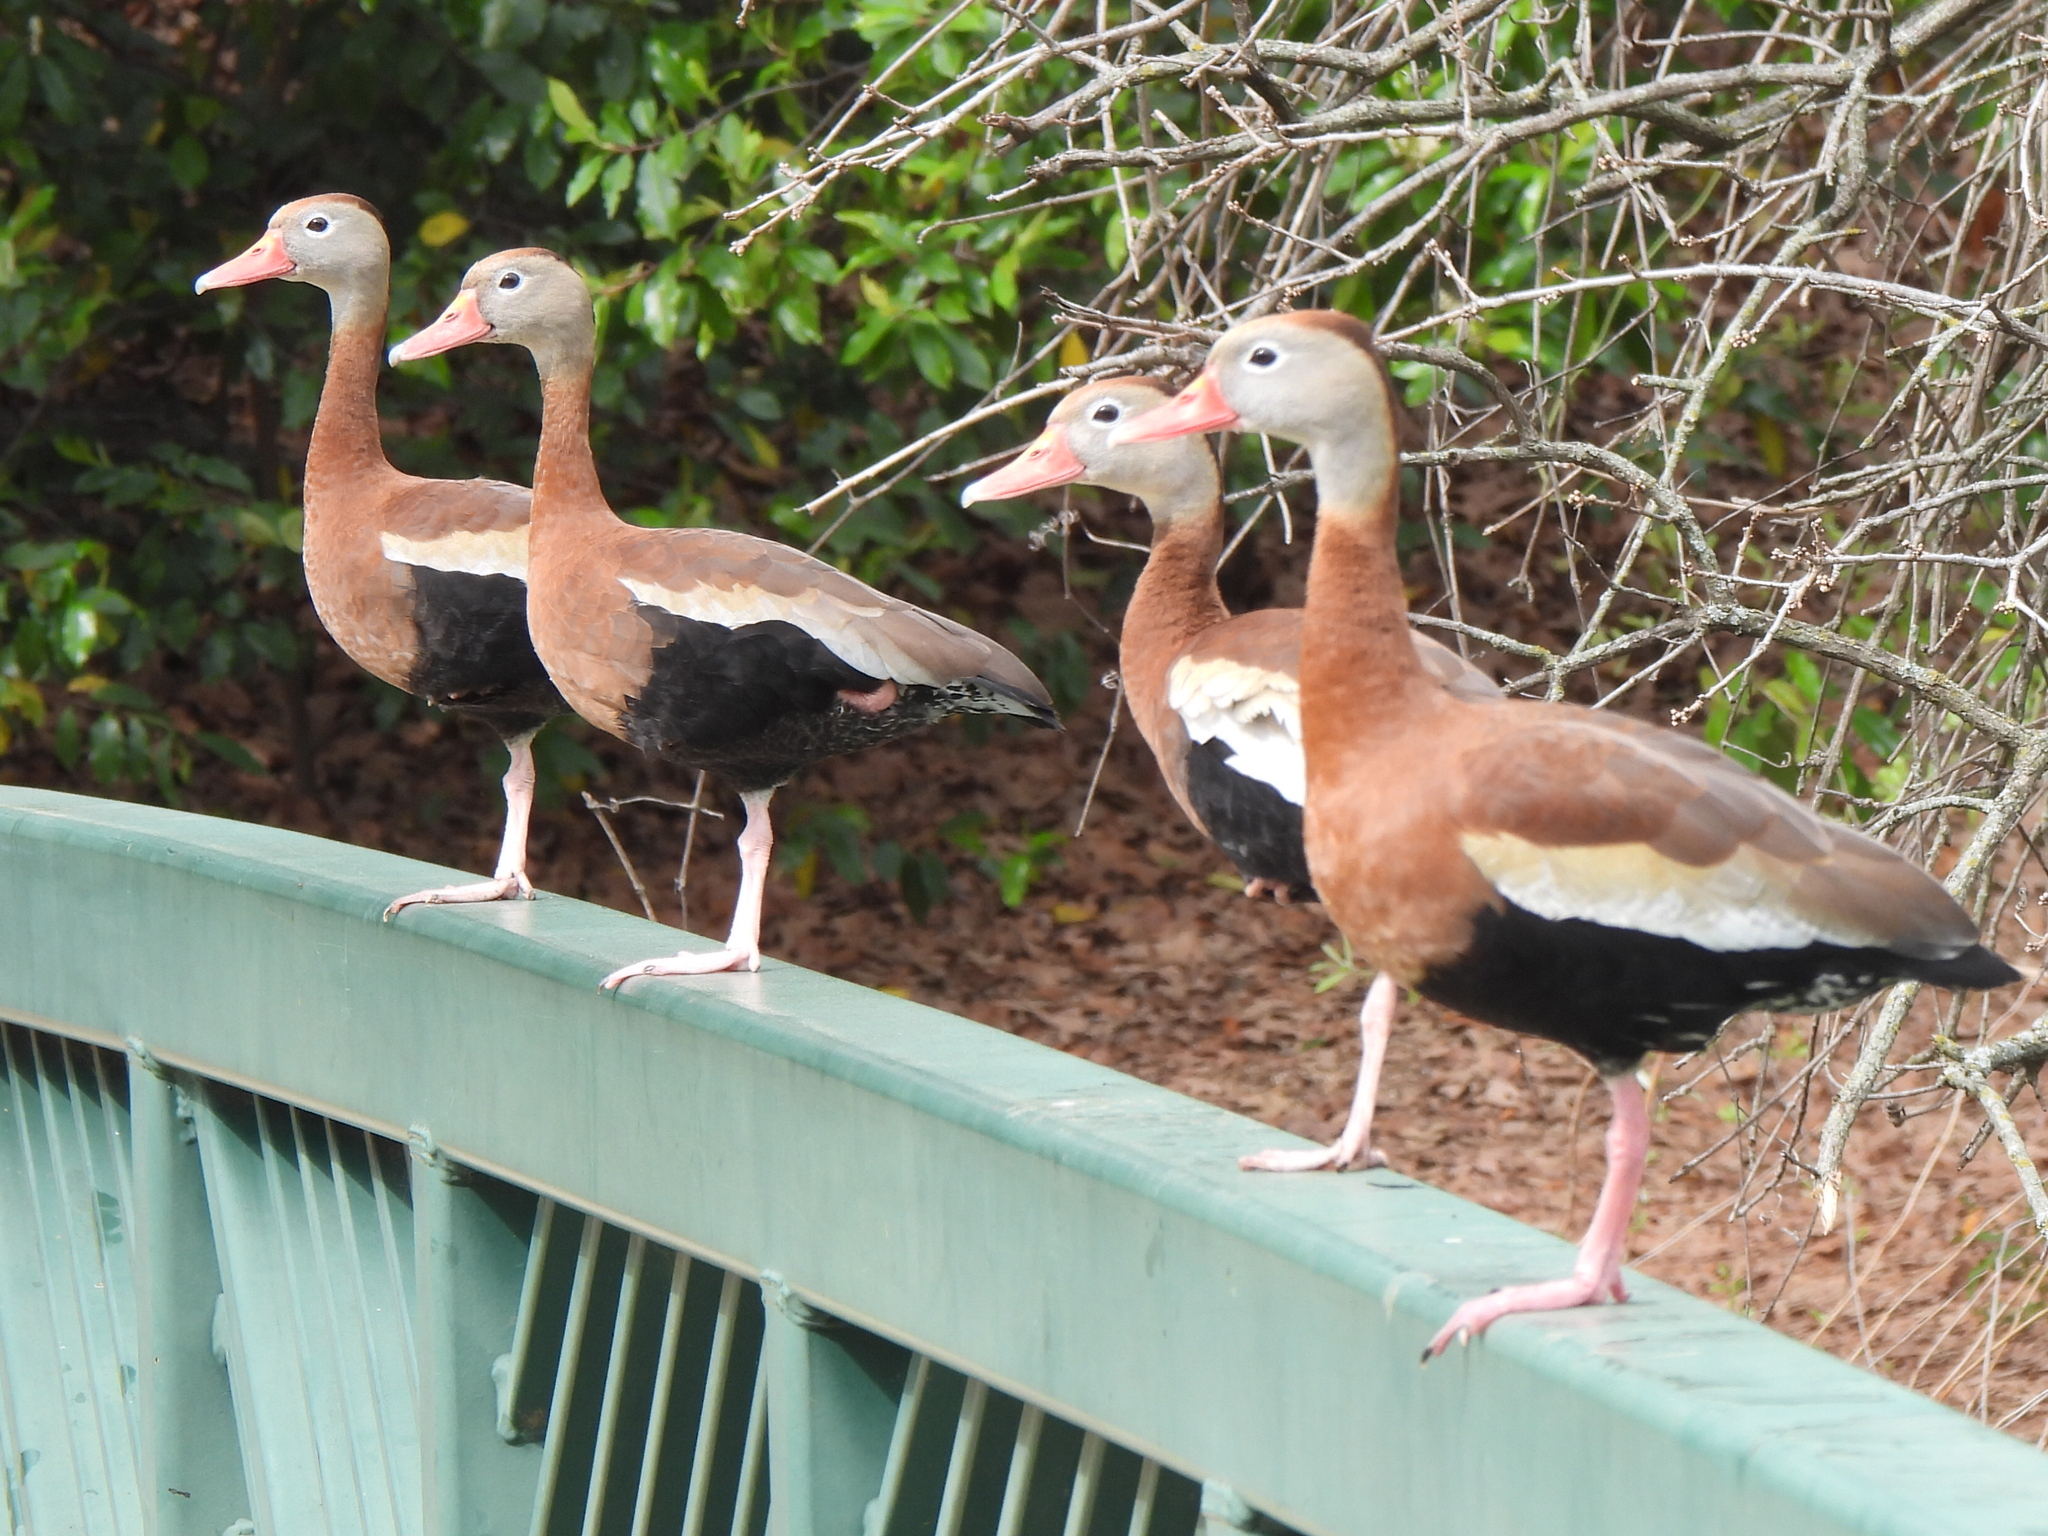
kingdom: Animalia
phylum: Chordata
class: Aves
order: Anseriformes
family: Anatidae
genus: Dendrocygna
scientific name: Dendrocygna autumnalis
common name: Black-bellied whistling duck
